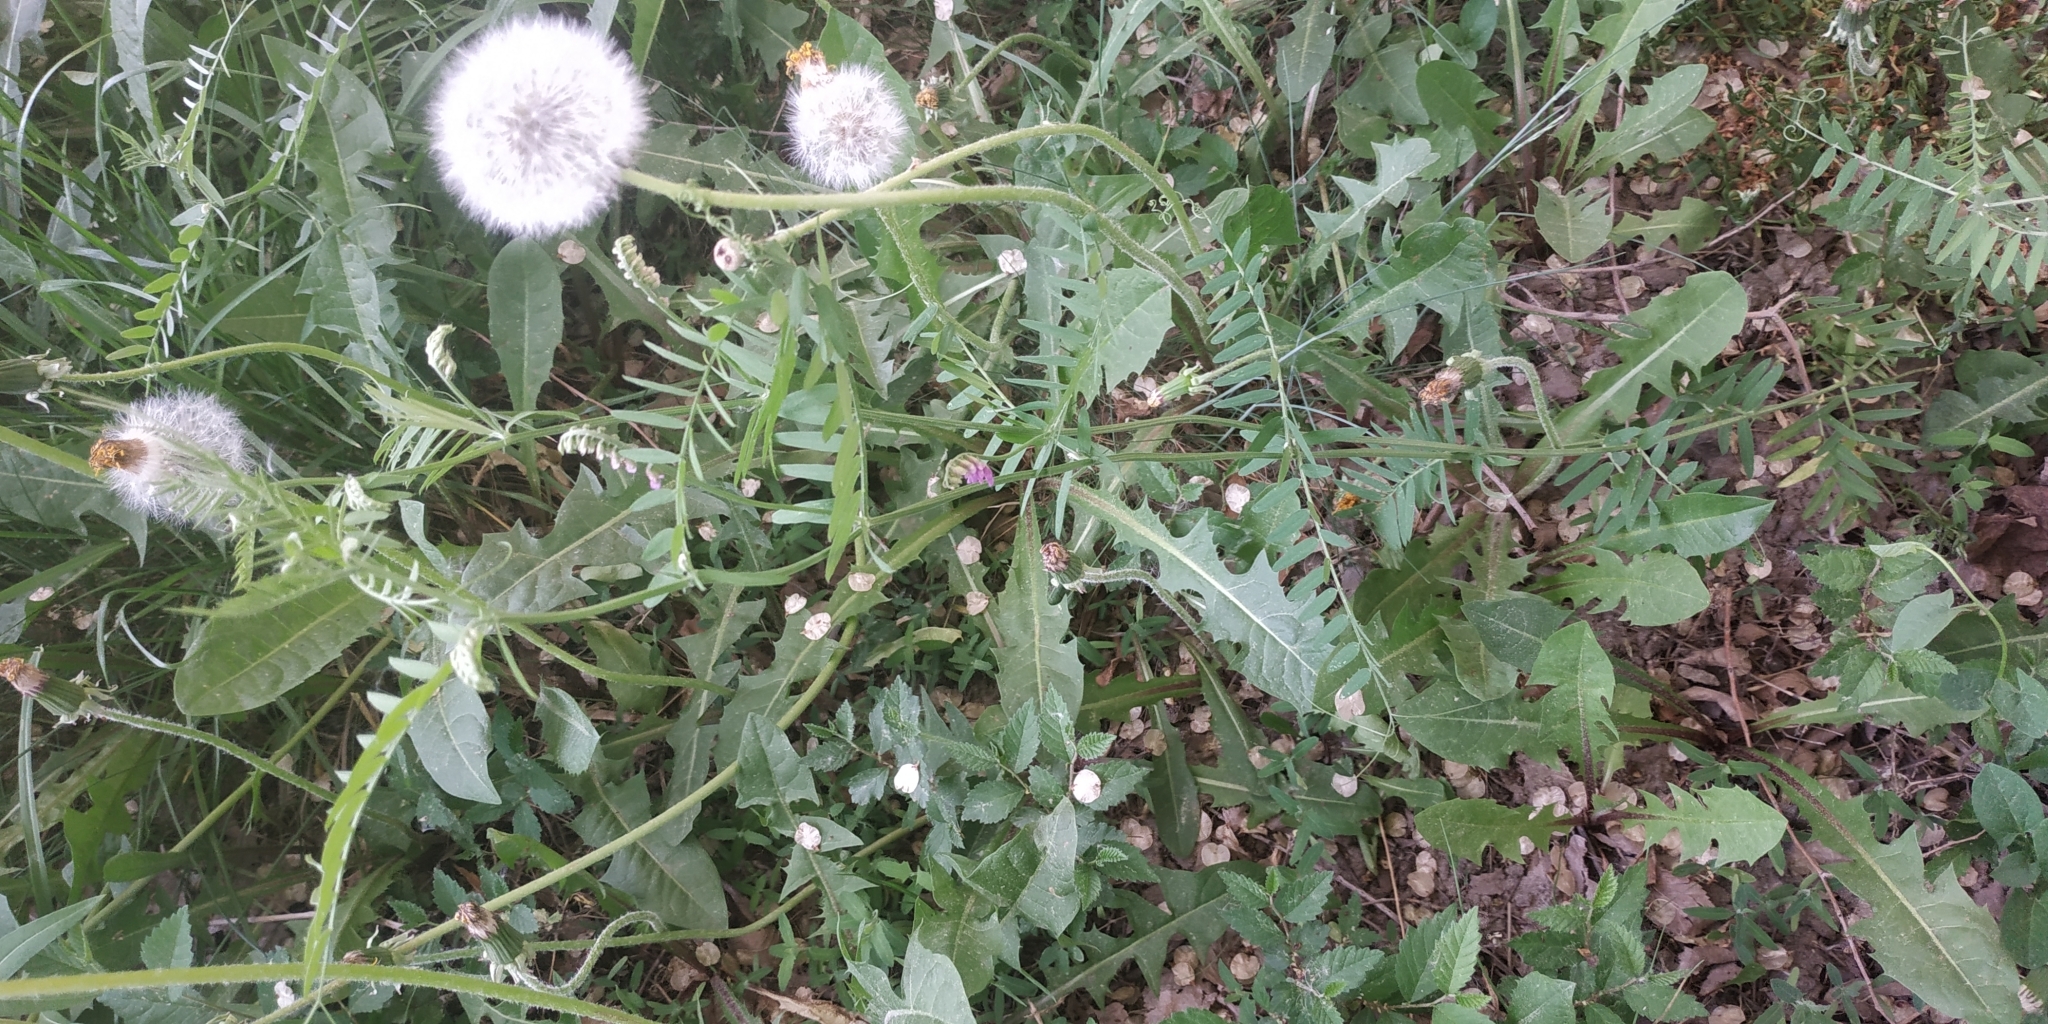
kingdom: Plantae
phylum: Tracheophyta
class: Magnoliopsida
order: Fabales
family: Fabaceae
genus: Vicia
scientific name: Vicia cracca
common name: Bird vetch
